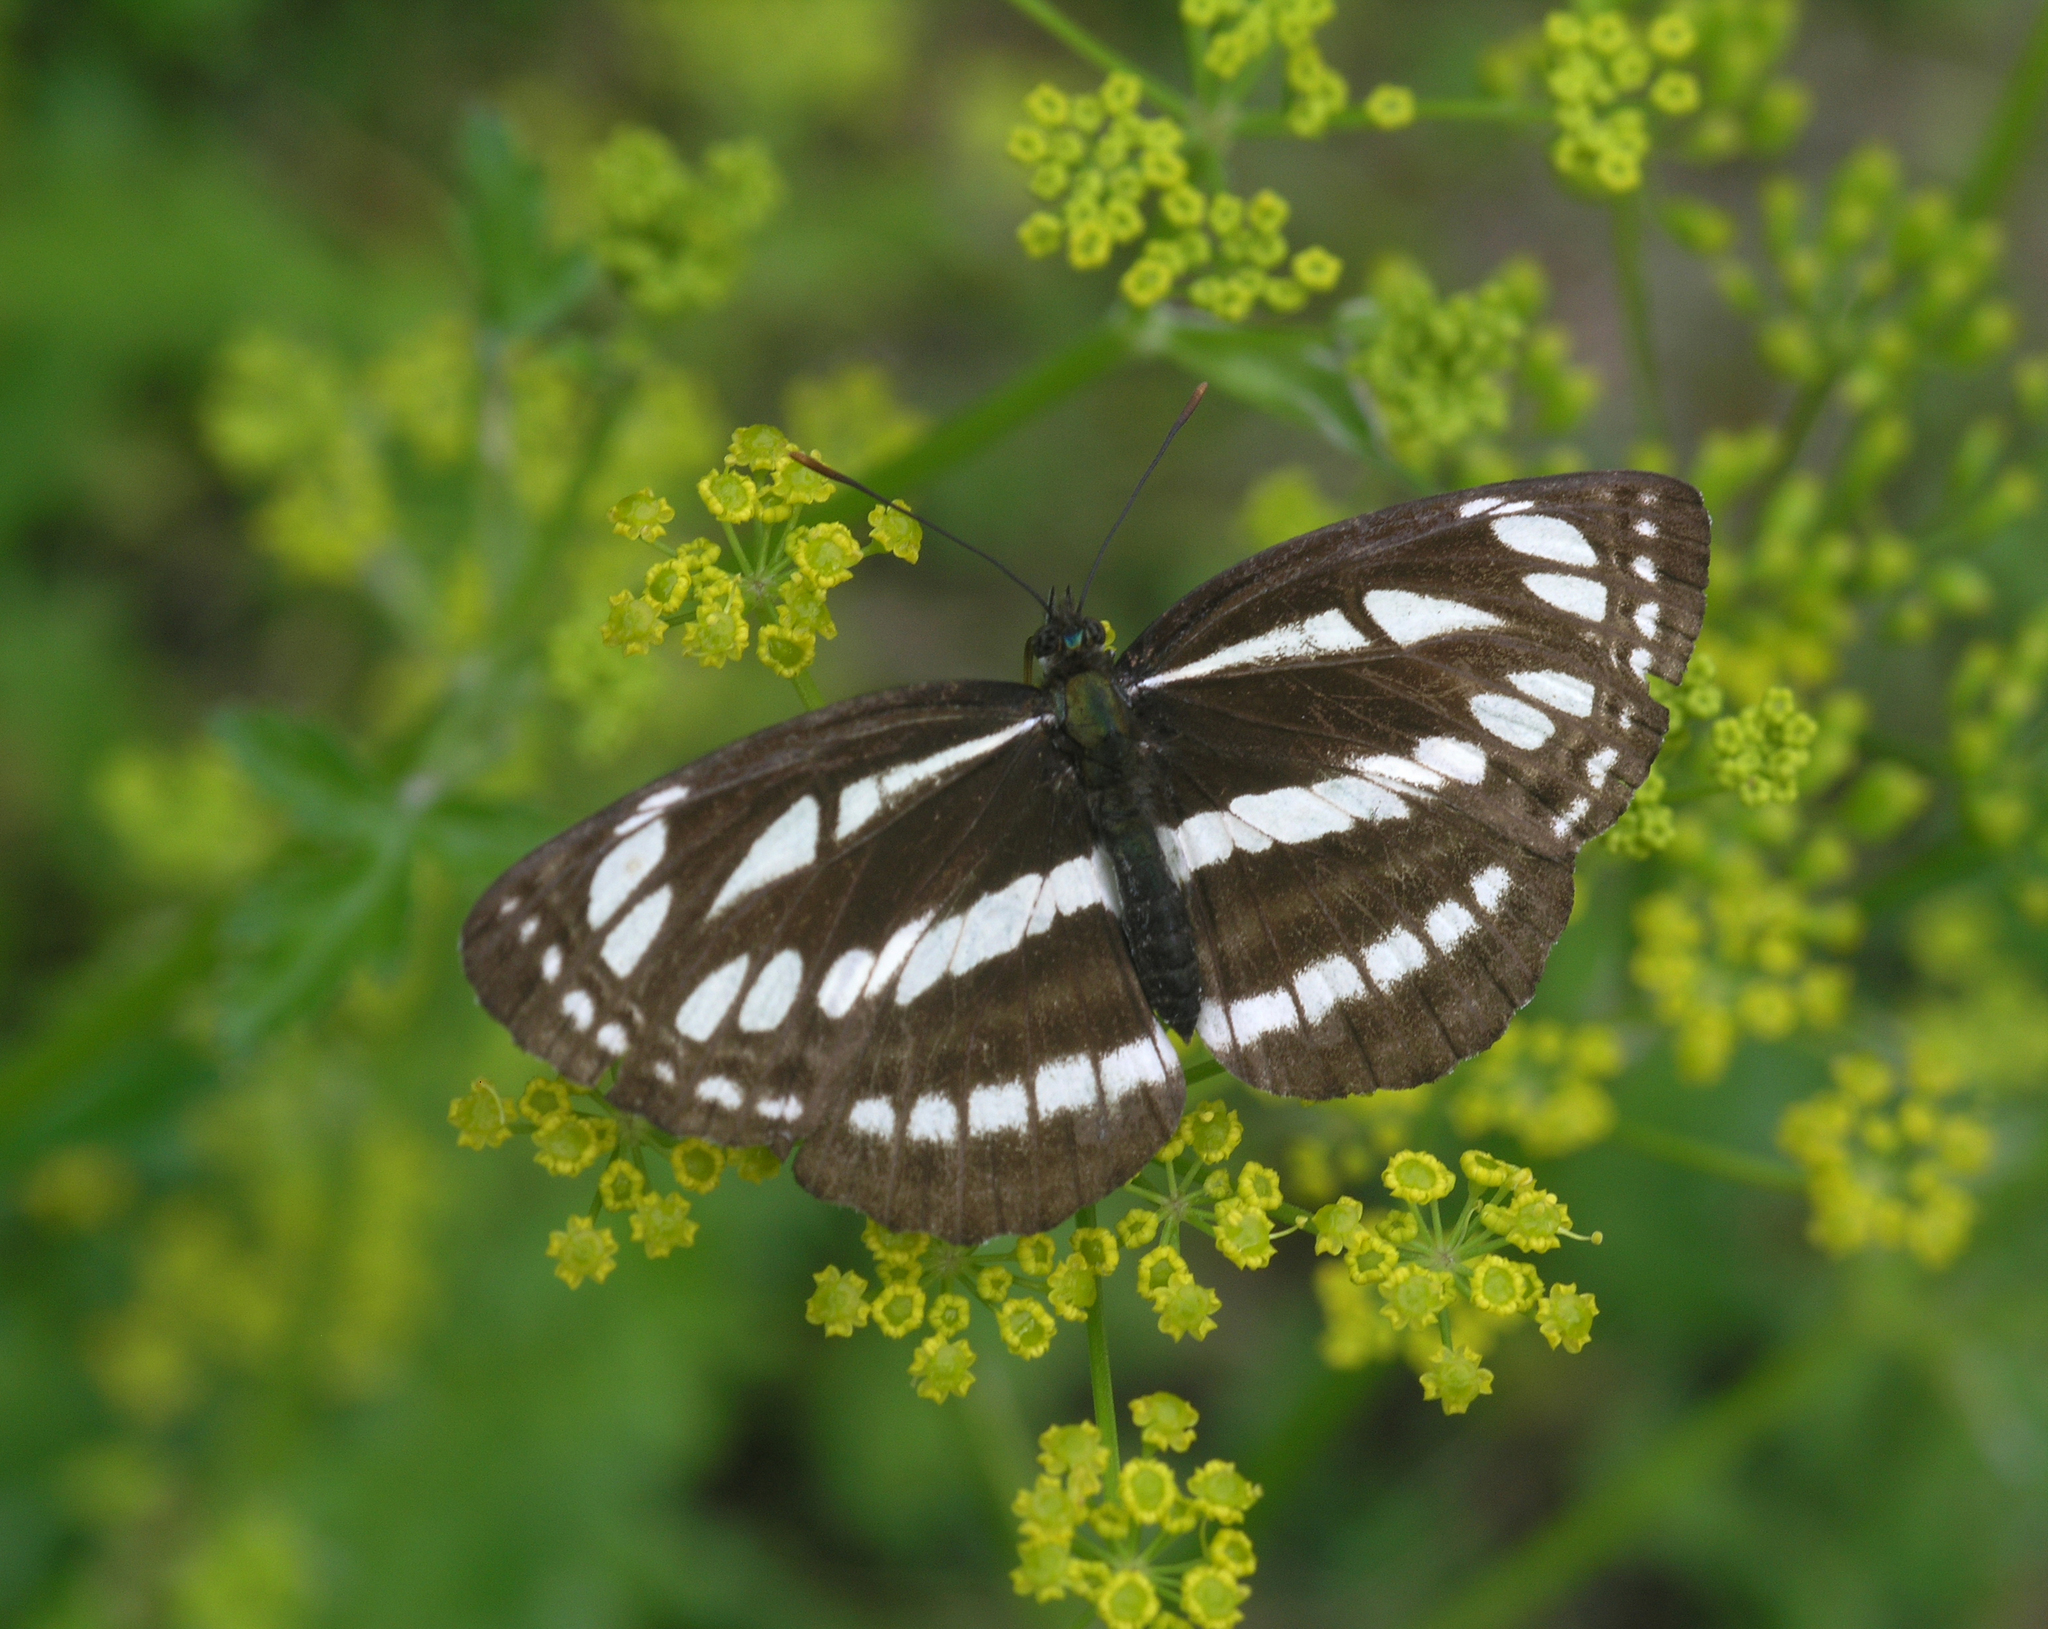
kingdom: Plantae
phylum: Tracheophyta
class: Magnoliopsida
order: Apiales
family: Apiaceae
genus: Pastinaca
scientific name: Pastinaca sativa
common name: Wild parsnip
